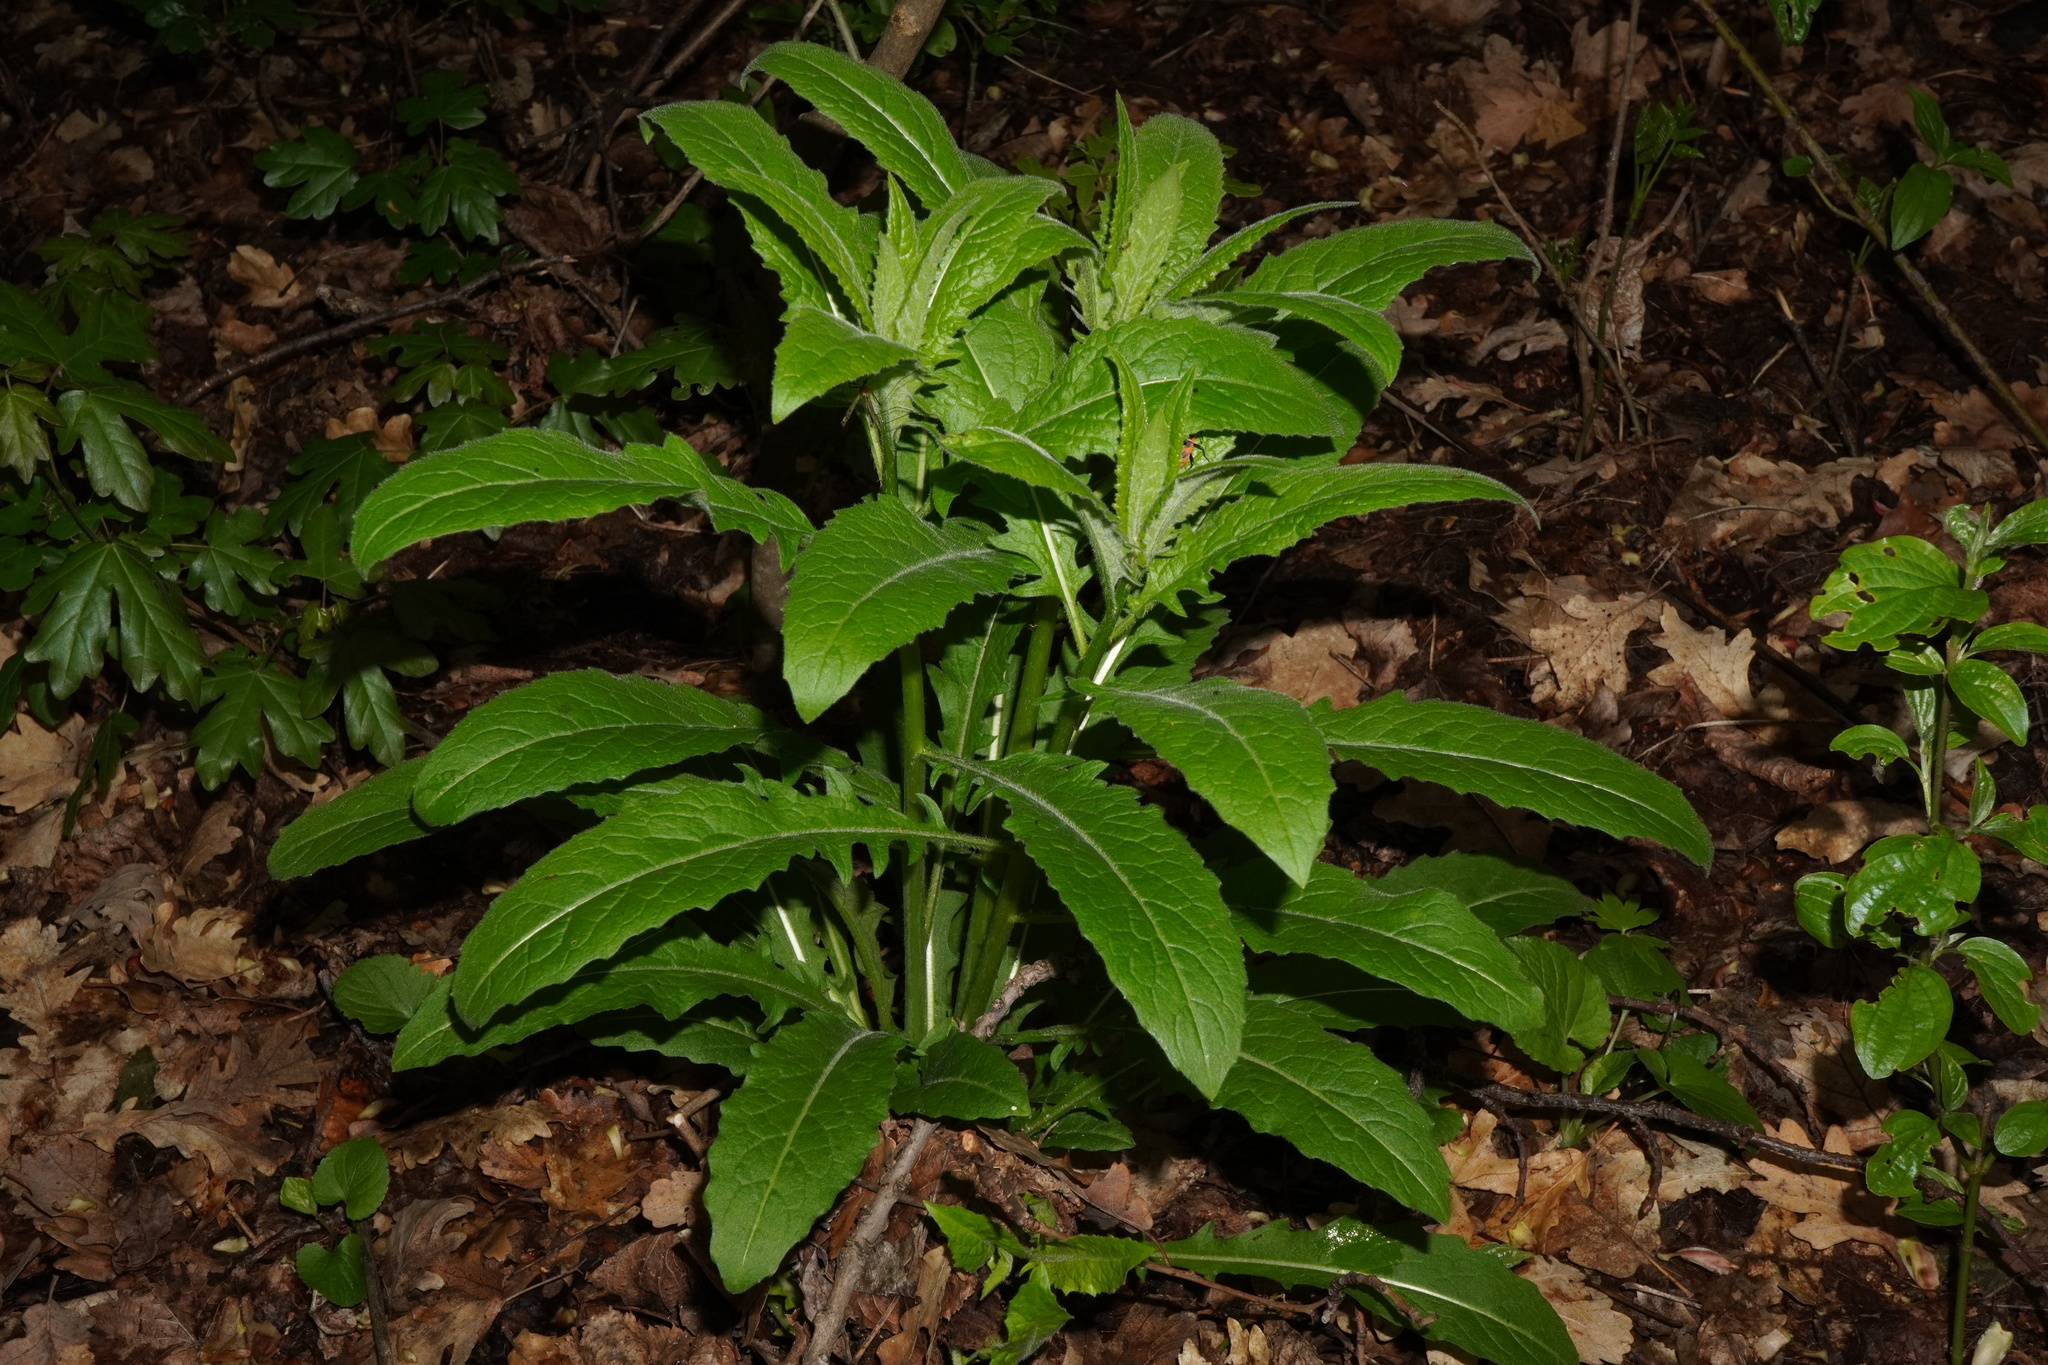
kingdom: Plantae
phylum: Tracheophyta
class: Magnoliopsida
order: Brassicales
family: Brassicaceae
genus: Sisymbrium
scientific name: Sisymbrium strictissimum
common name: Perennial rocket
